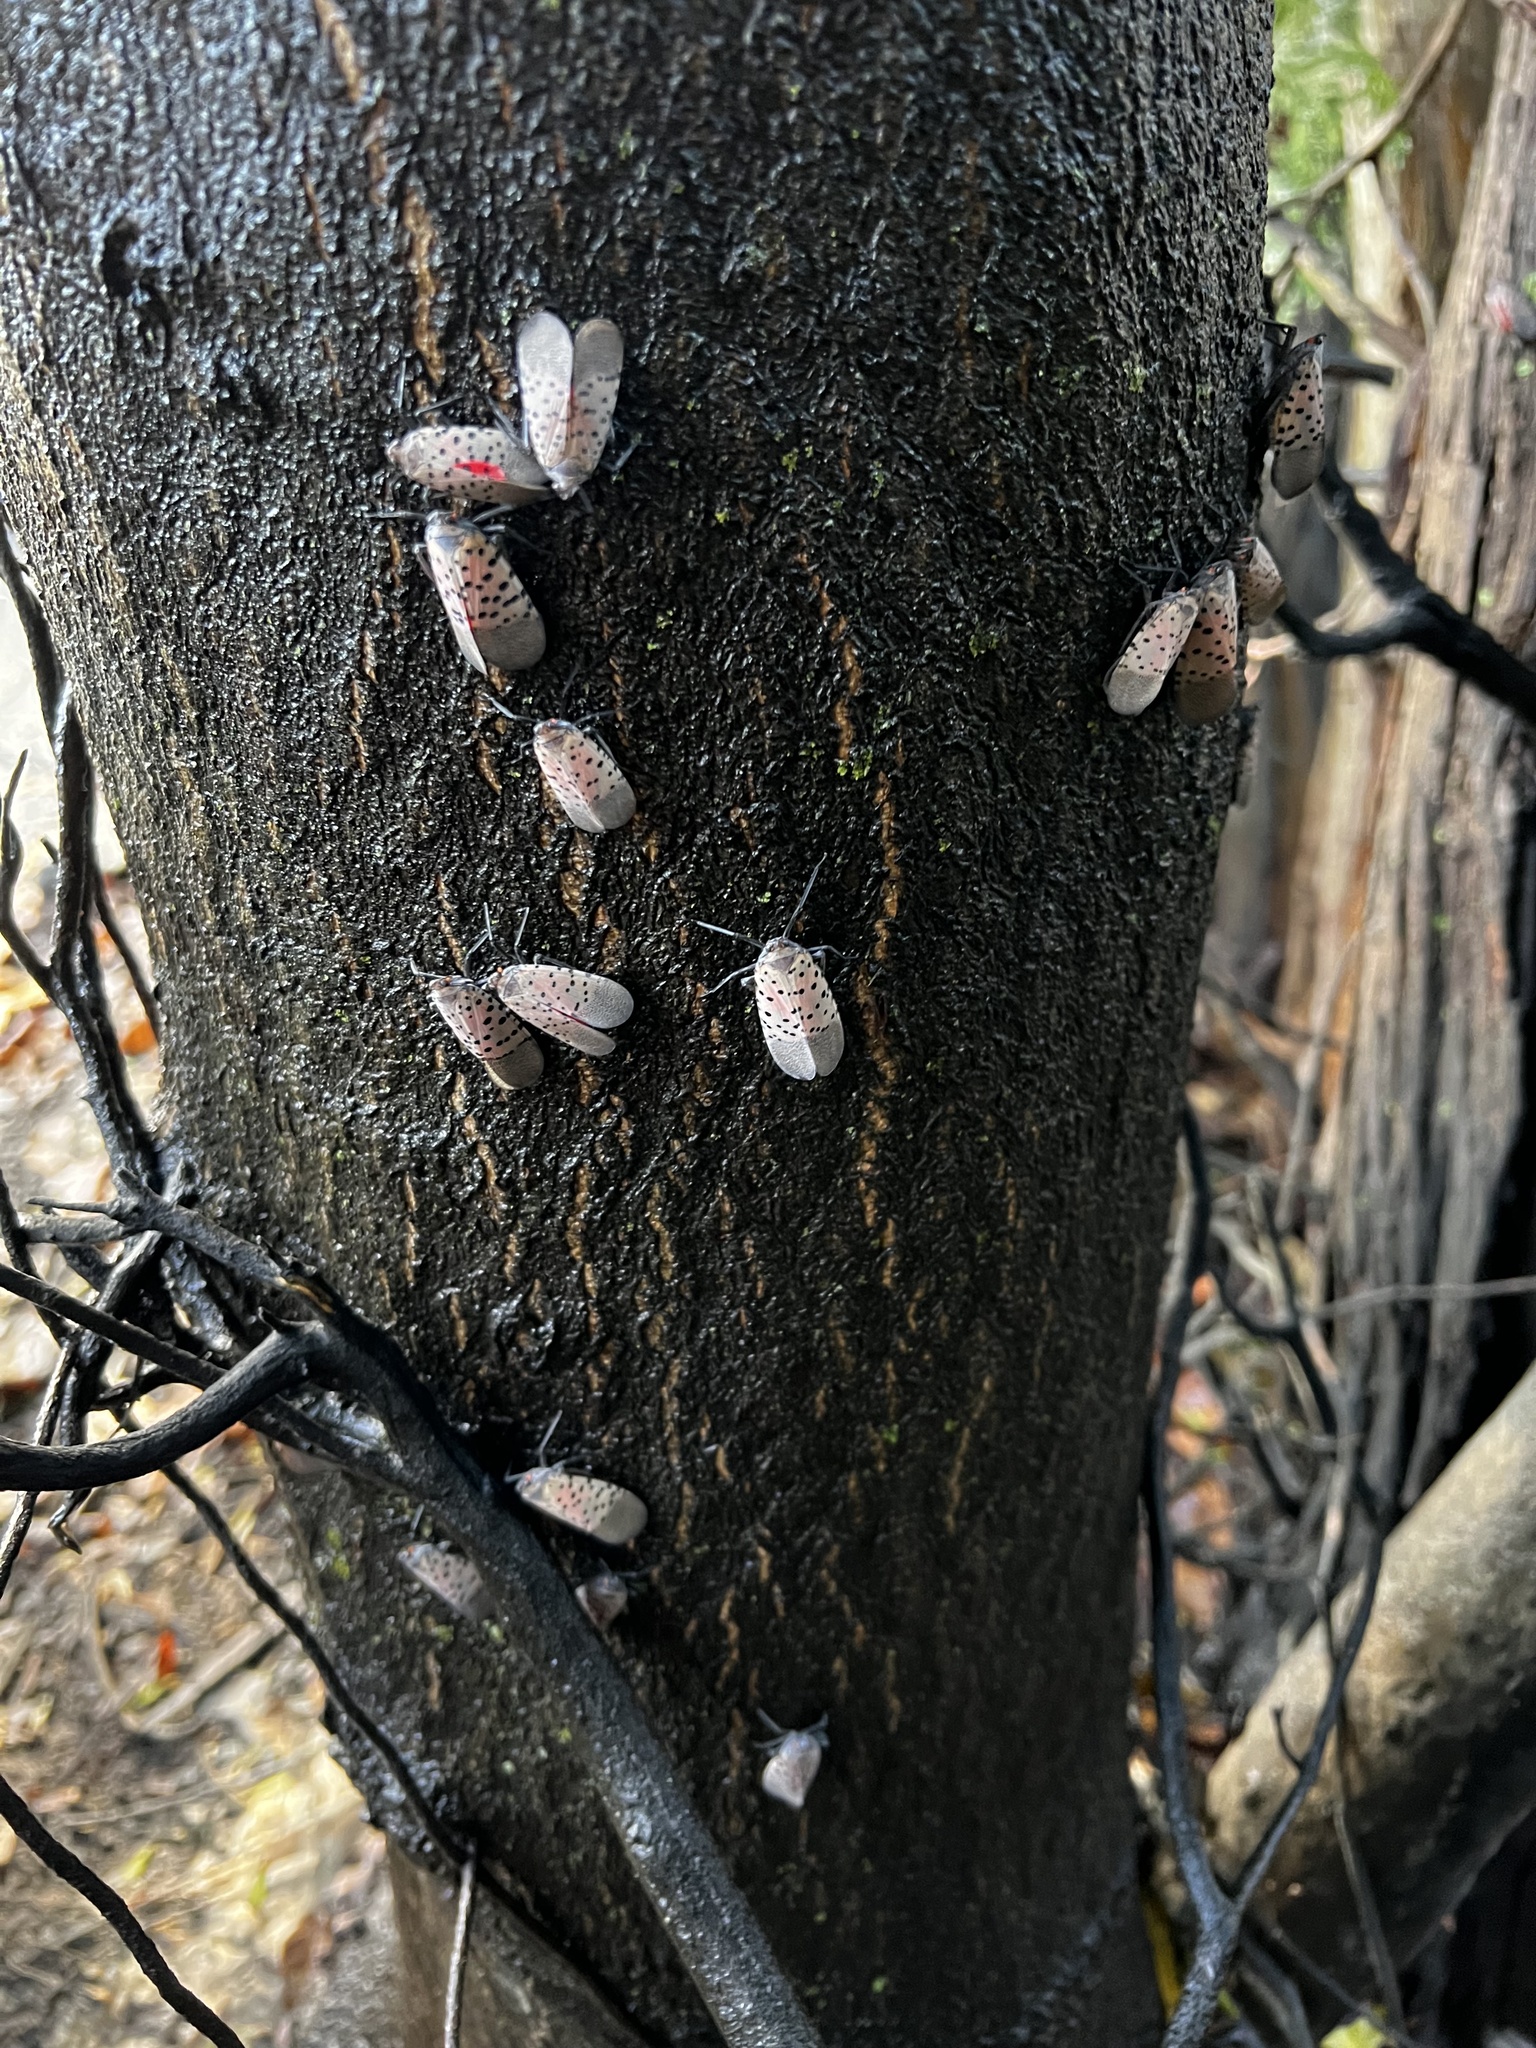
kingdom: Animalia
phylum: Arthropoda
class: Insecta
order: Hemiptera
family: Fulgoridae
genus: Lycorma
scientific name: Lycorma delicatula
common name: Spotted lanternfly
